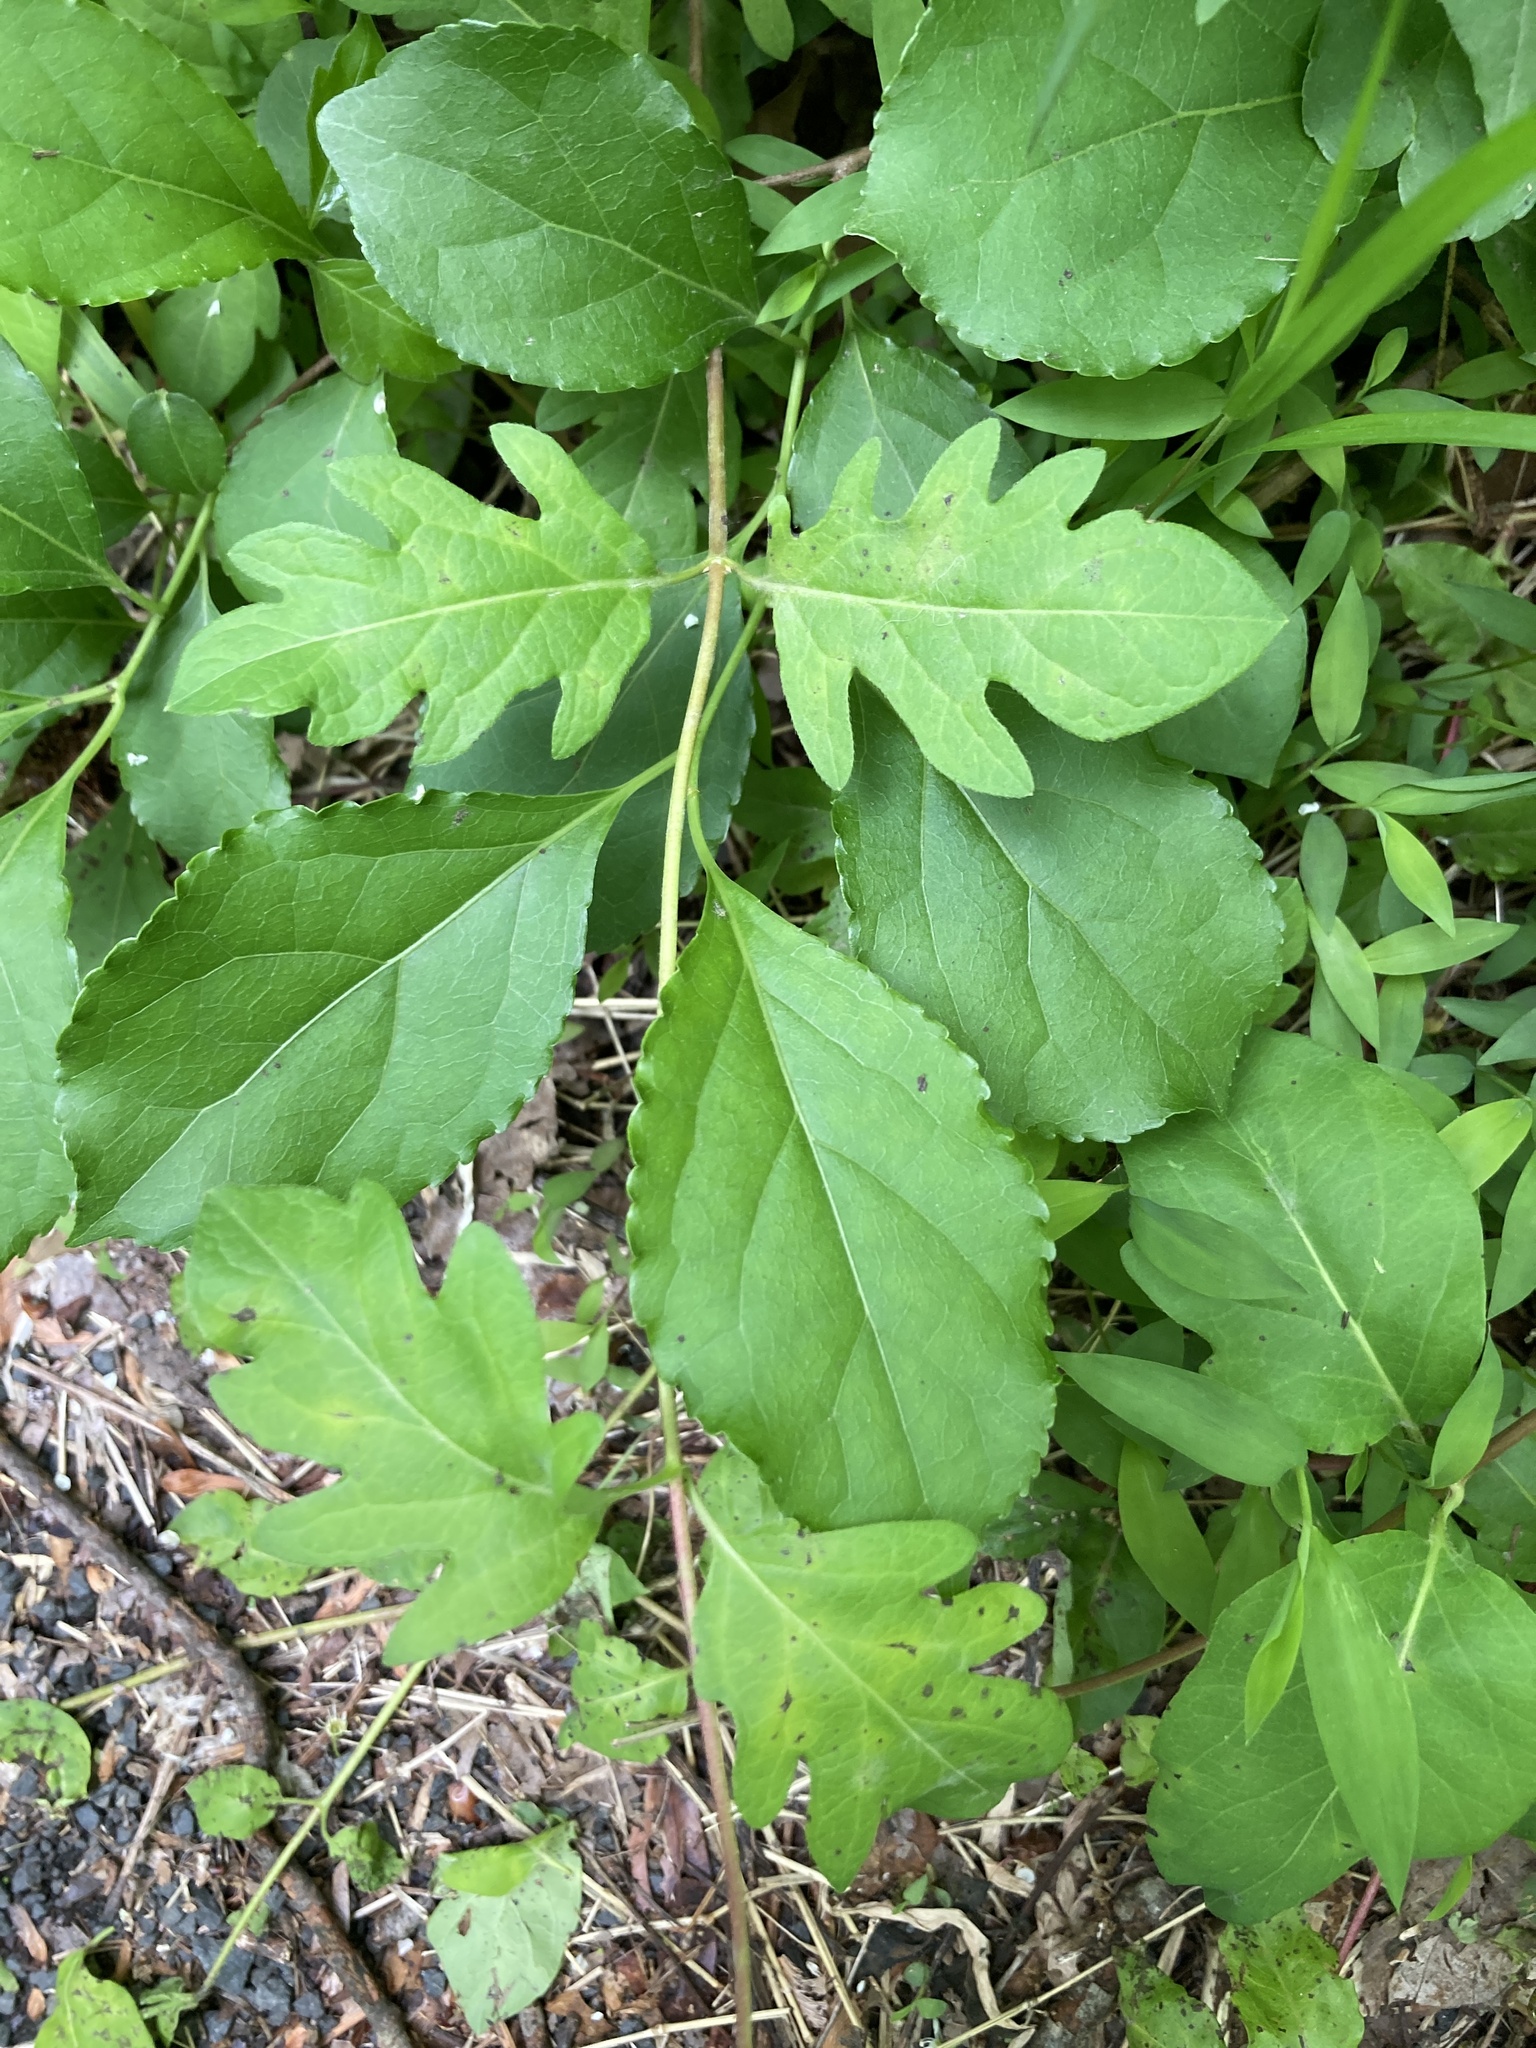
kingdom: Plantae
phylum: Tracheophyta
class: Magnoliopsida
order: Dipsacales
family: Caprifoliaceae
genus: Lonicera
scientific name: Lonicera japonica
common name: Japanese honeysuckle
